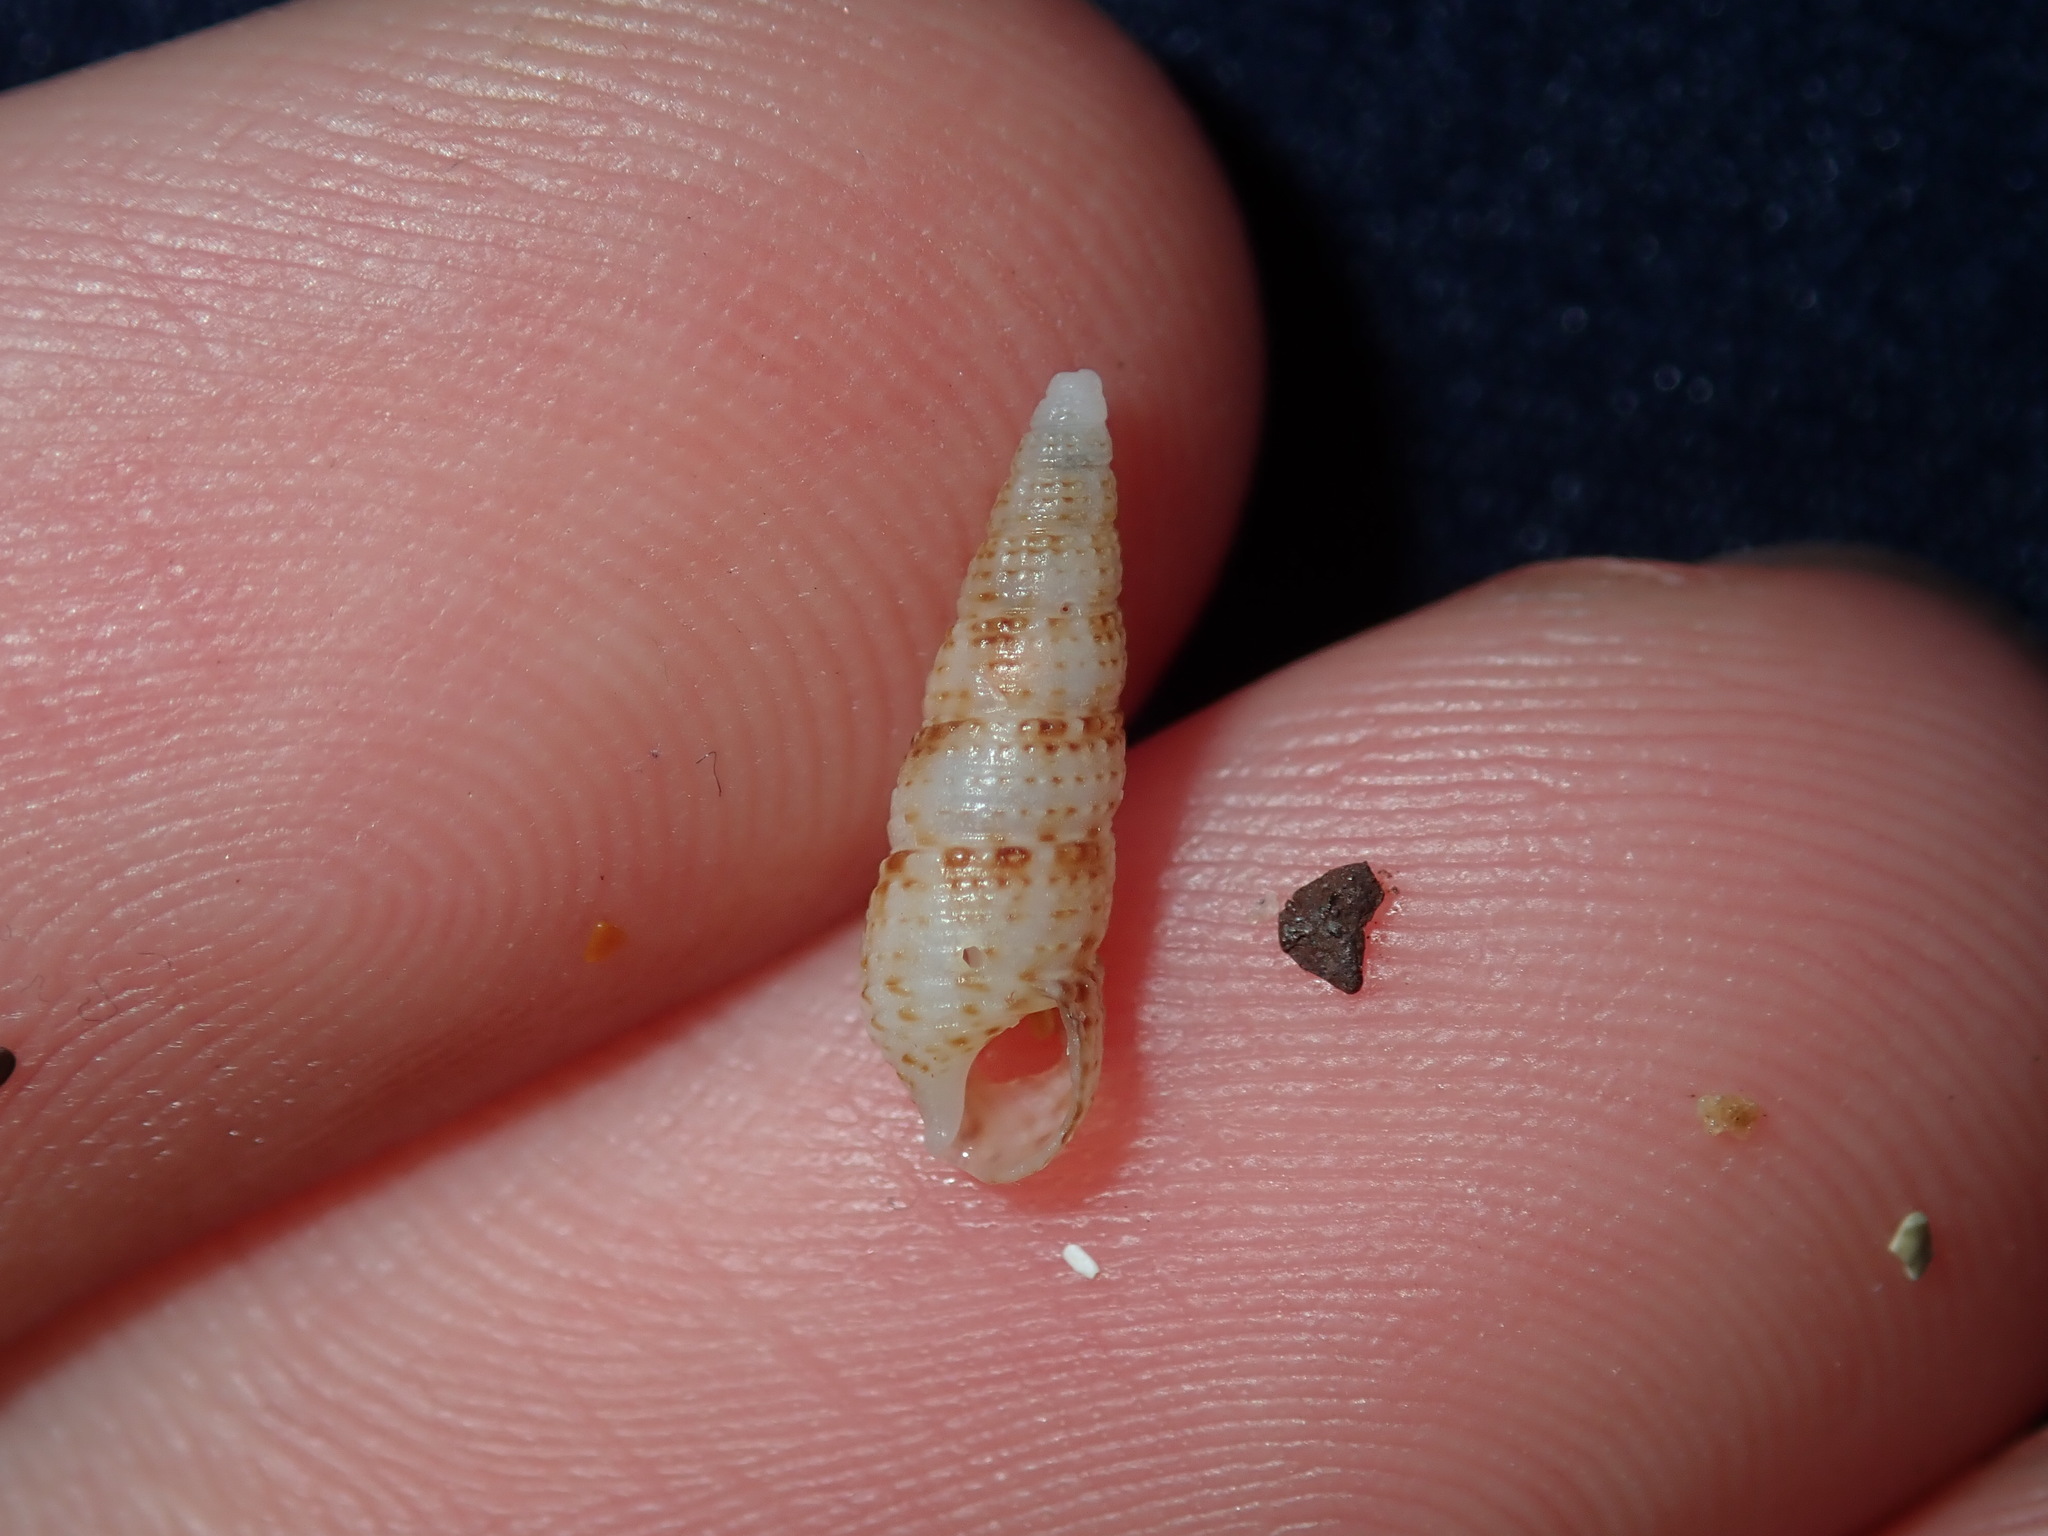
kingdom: Animalia
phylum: Mollusca
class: Gastropoda
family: Cerithiidae
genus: Cacozeliana
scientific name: Cacozeliana granarium
